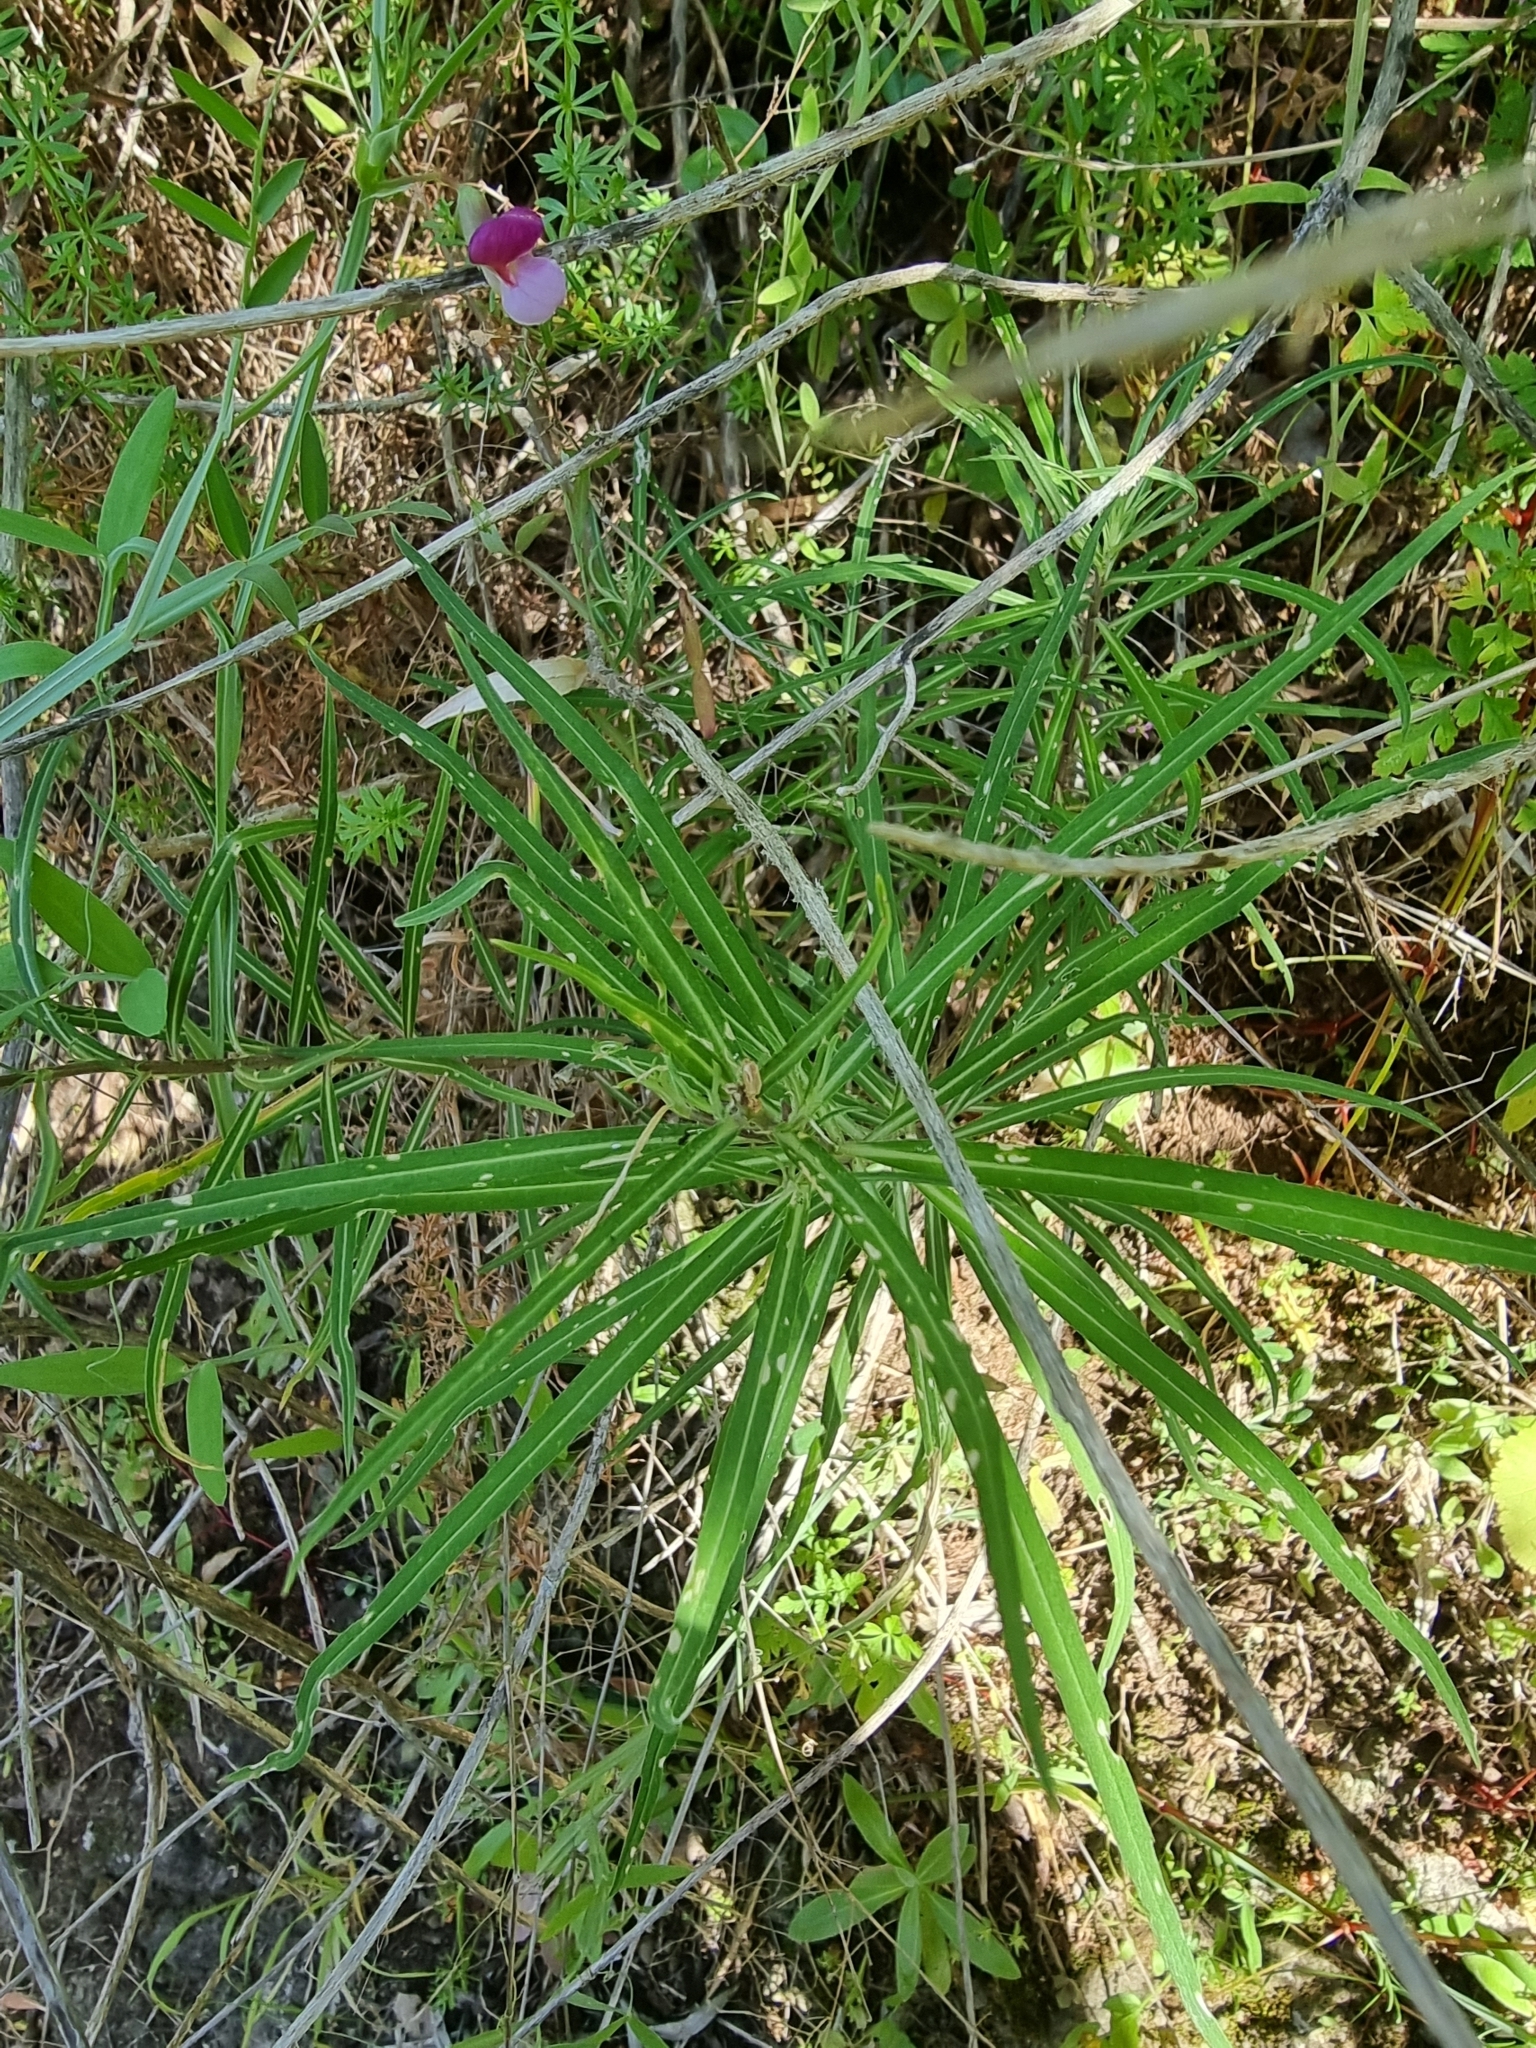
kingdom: Plantae
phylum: Tracheophyta
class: Magnoliopsida
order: Brassicales
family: Brassicaceae
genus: Erysimum
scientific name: Erysimum bicolor
